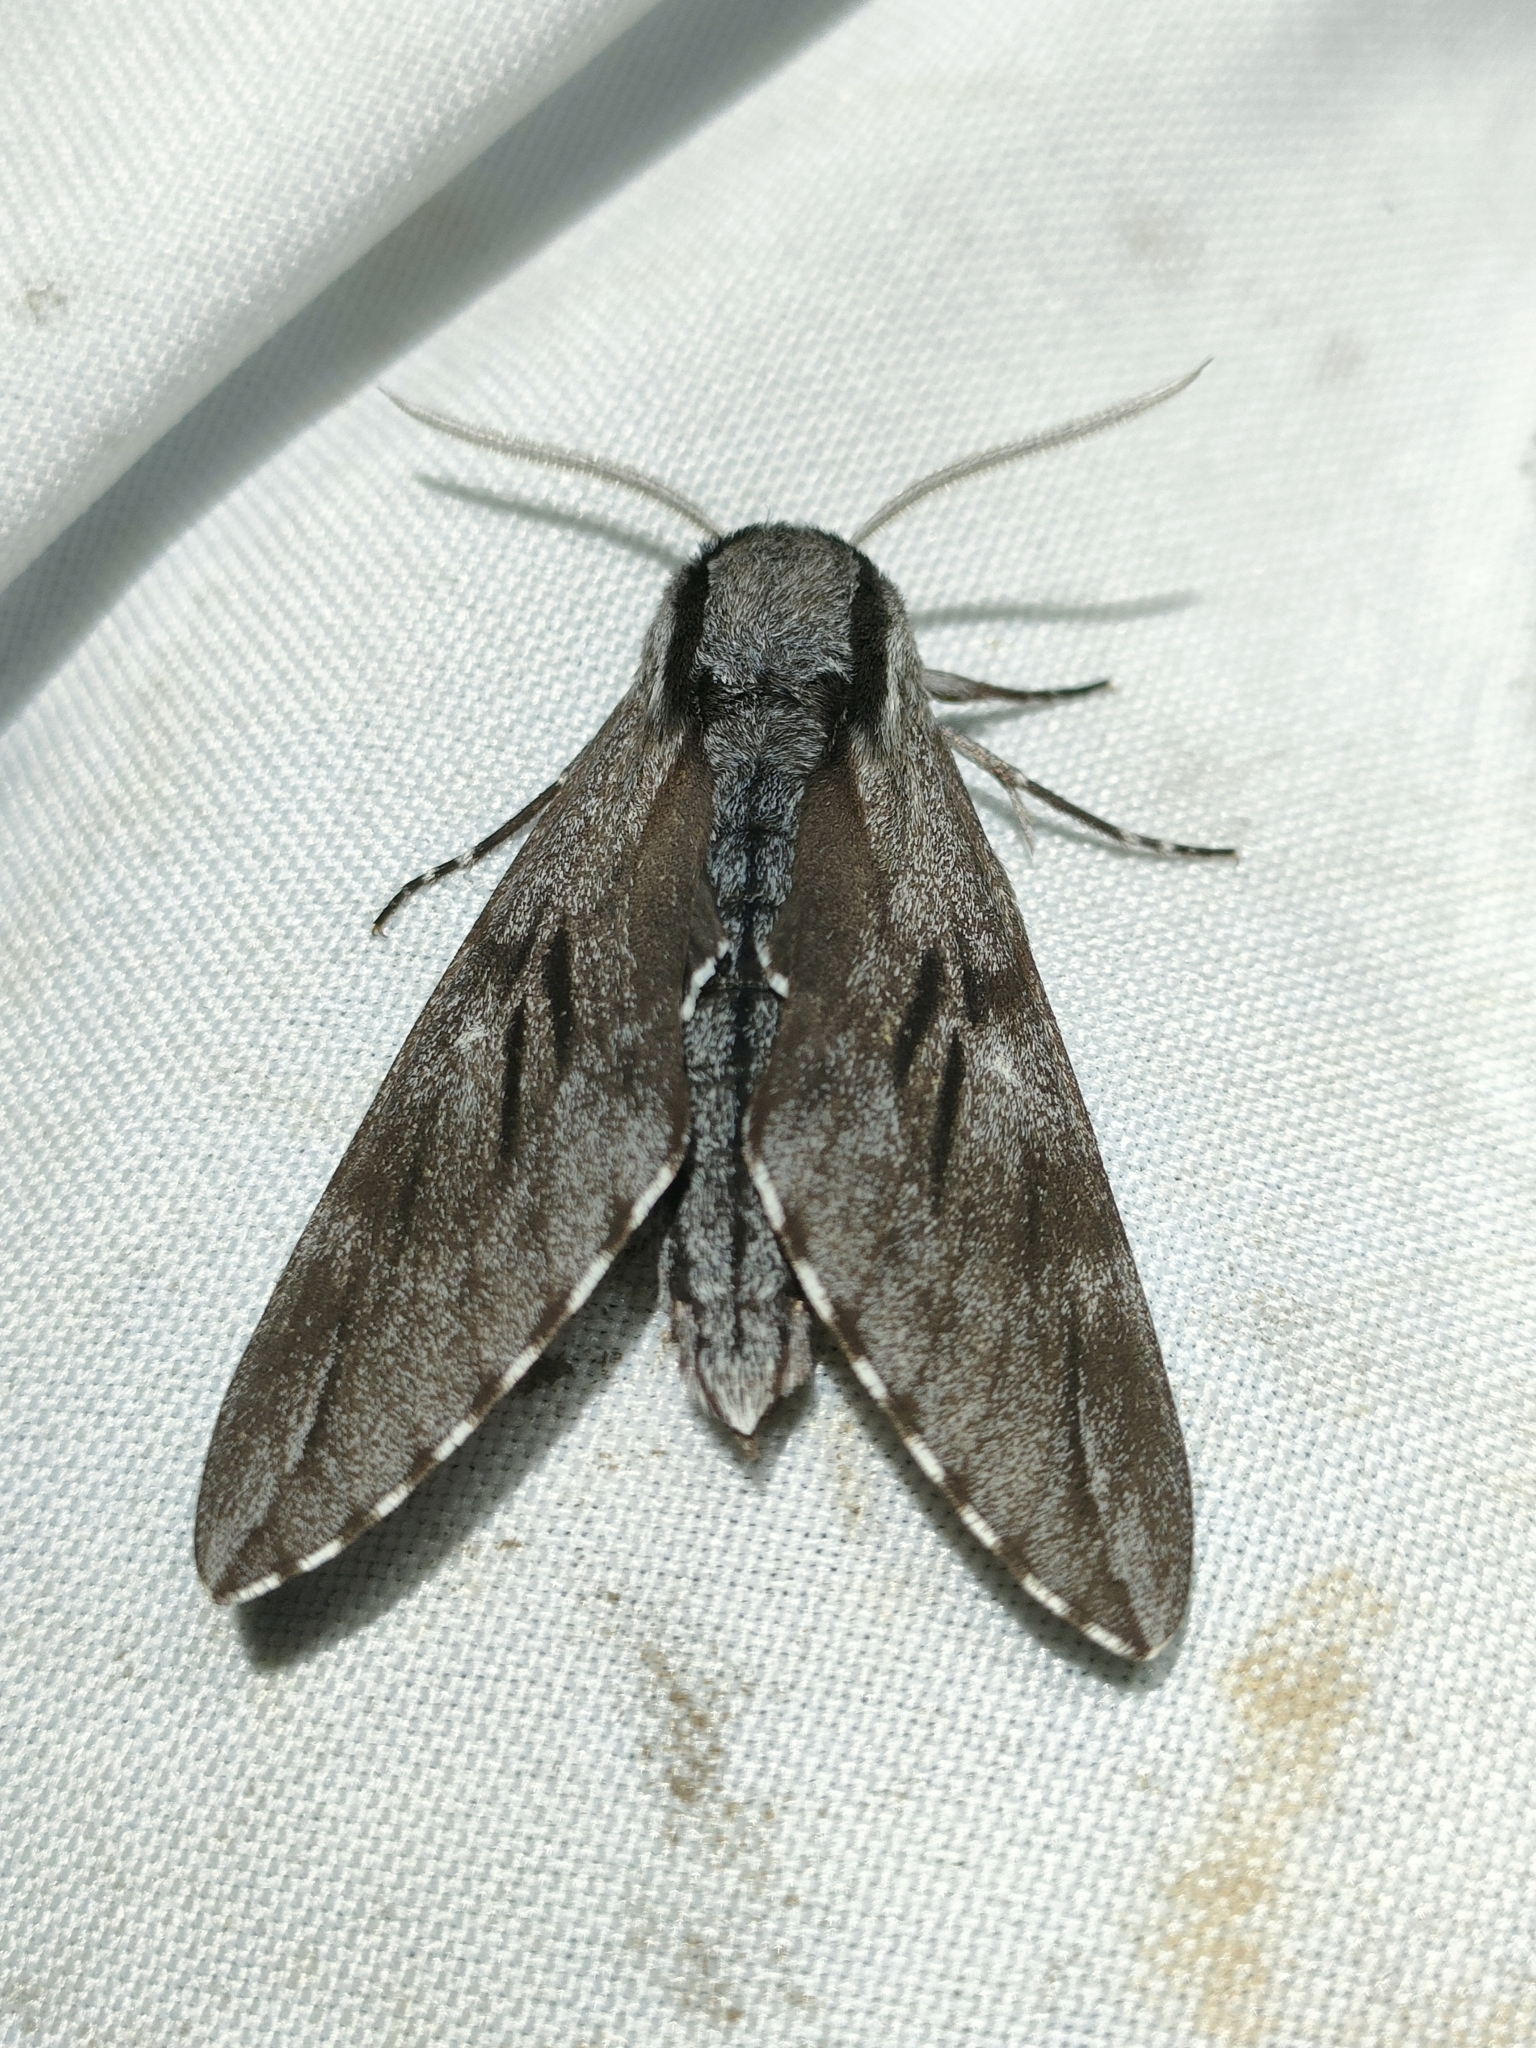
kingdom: Animalia
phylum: Arthropoda
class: Insecta
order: Lepidoptera
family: Sphingidae
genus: Sphinx
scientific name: Sphinx maurorum
